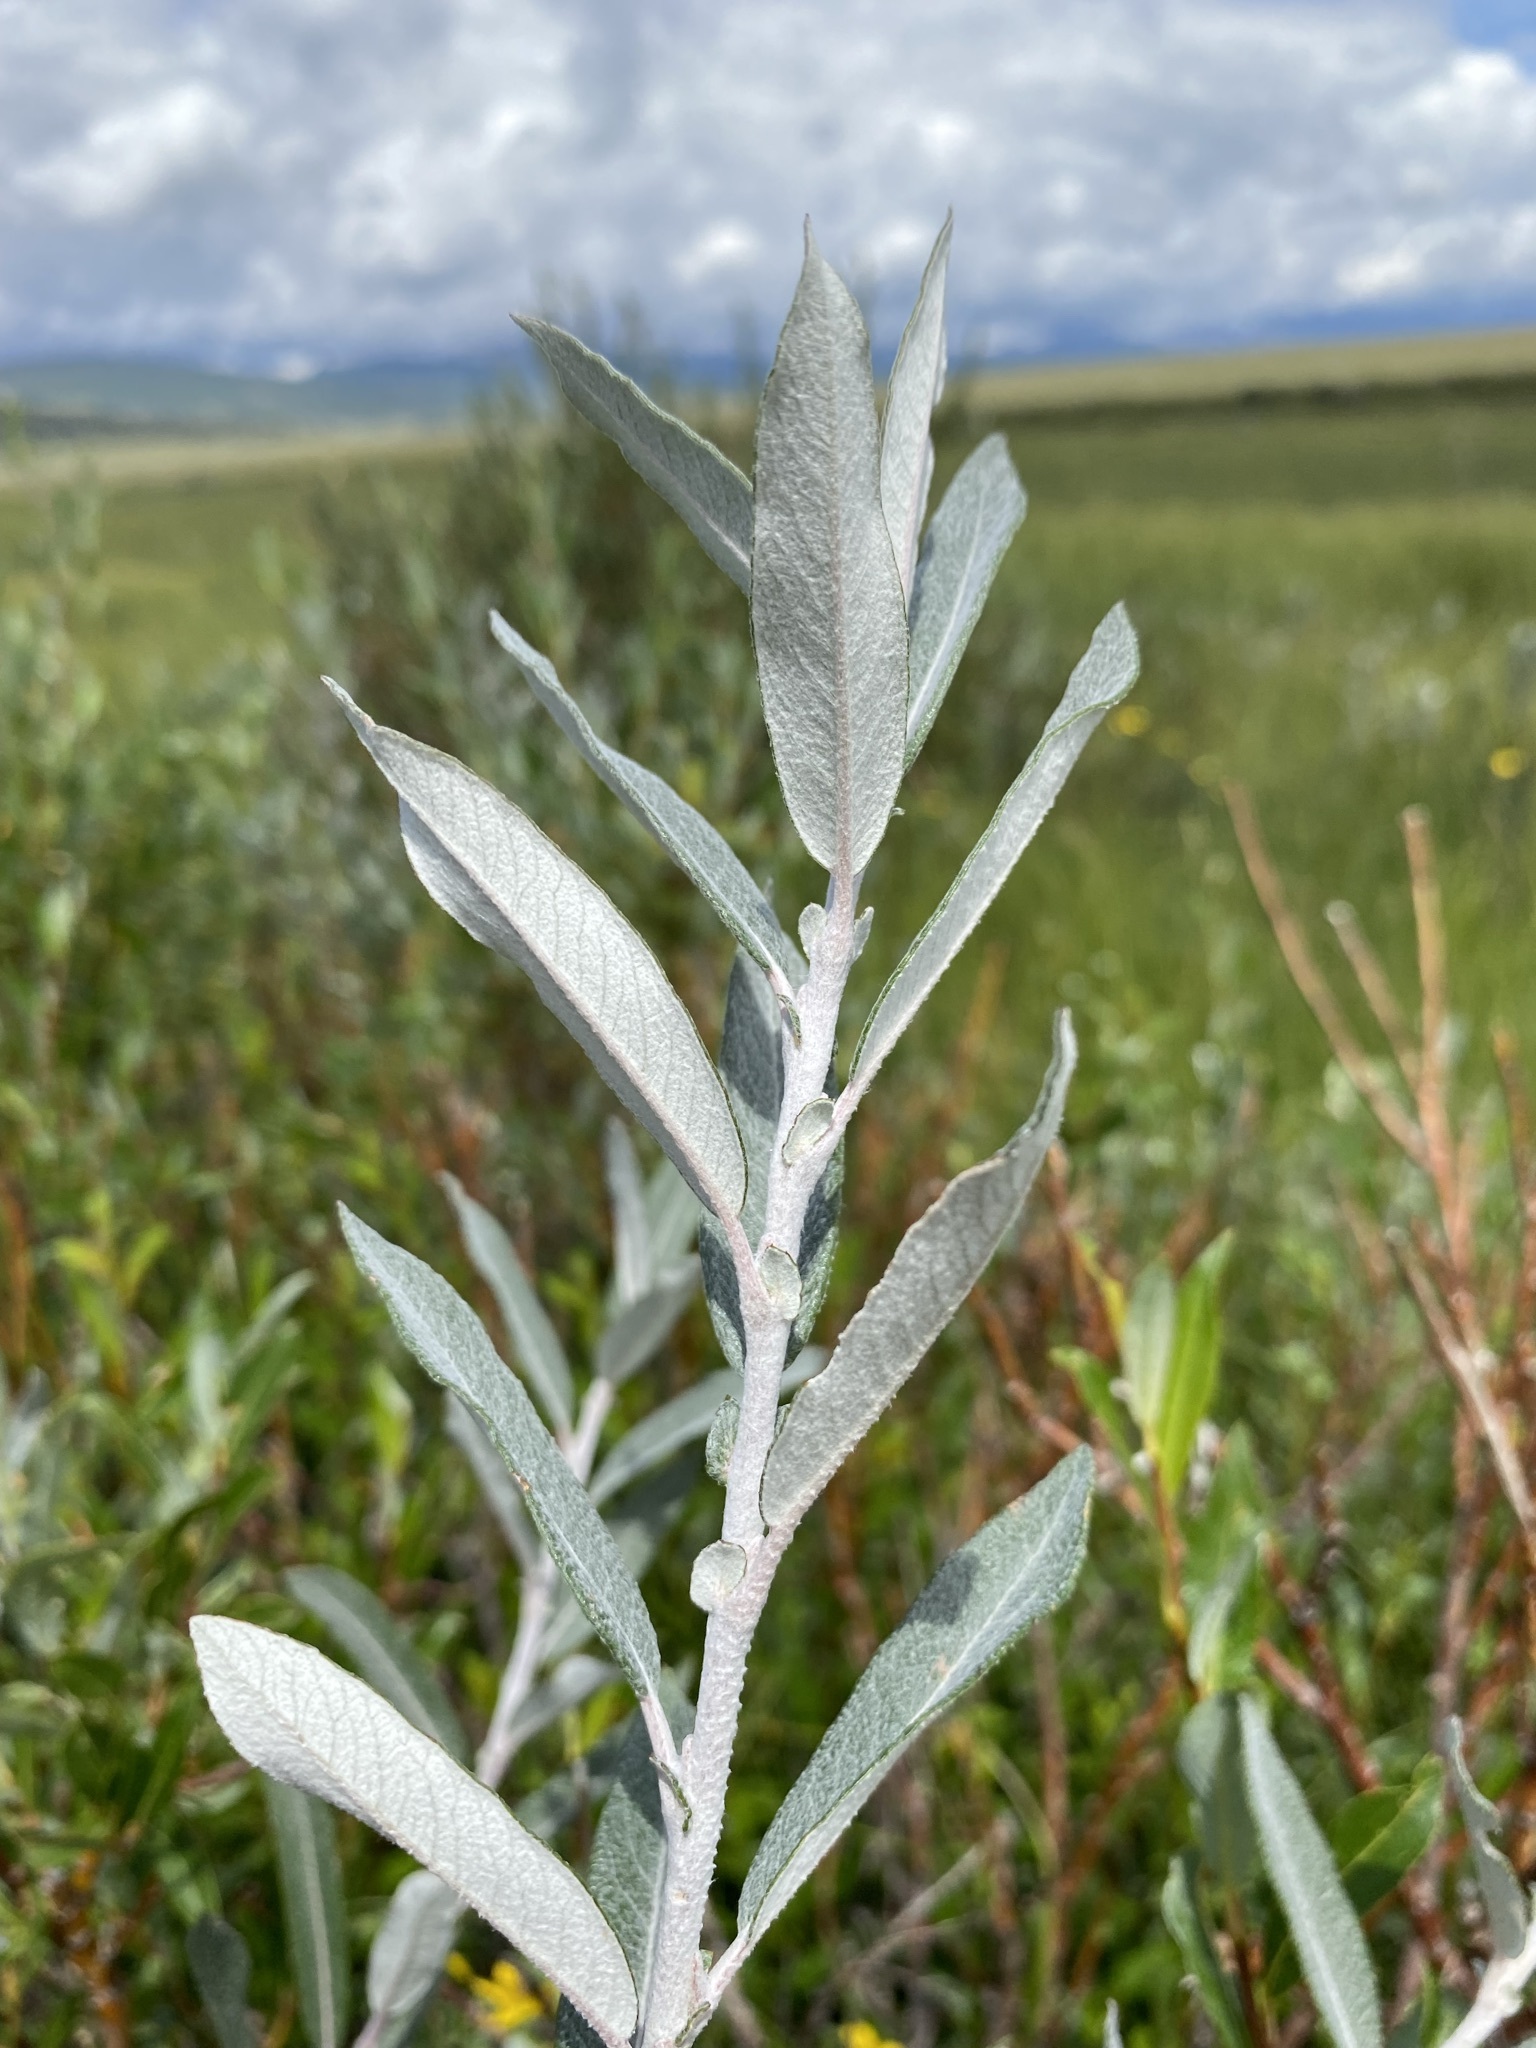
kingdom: Plantae
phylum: Tracheophyta
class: Magnoliopsida
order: Malpighiales
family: Salicaceae
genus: Salix
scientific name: Salix candida
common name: Hoary willow
